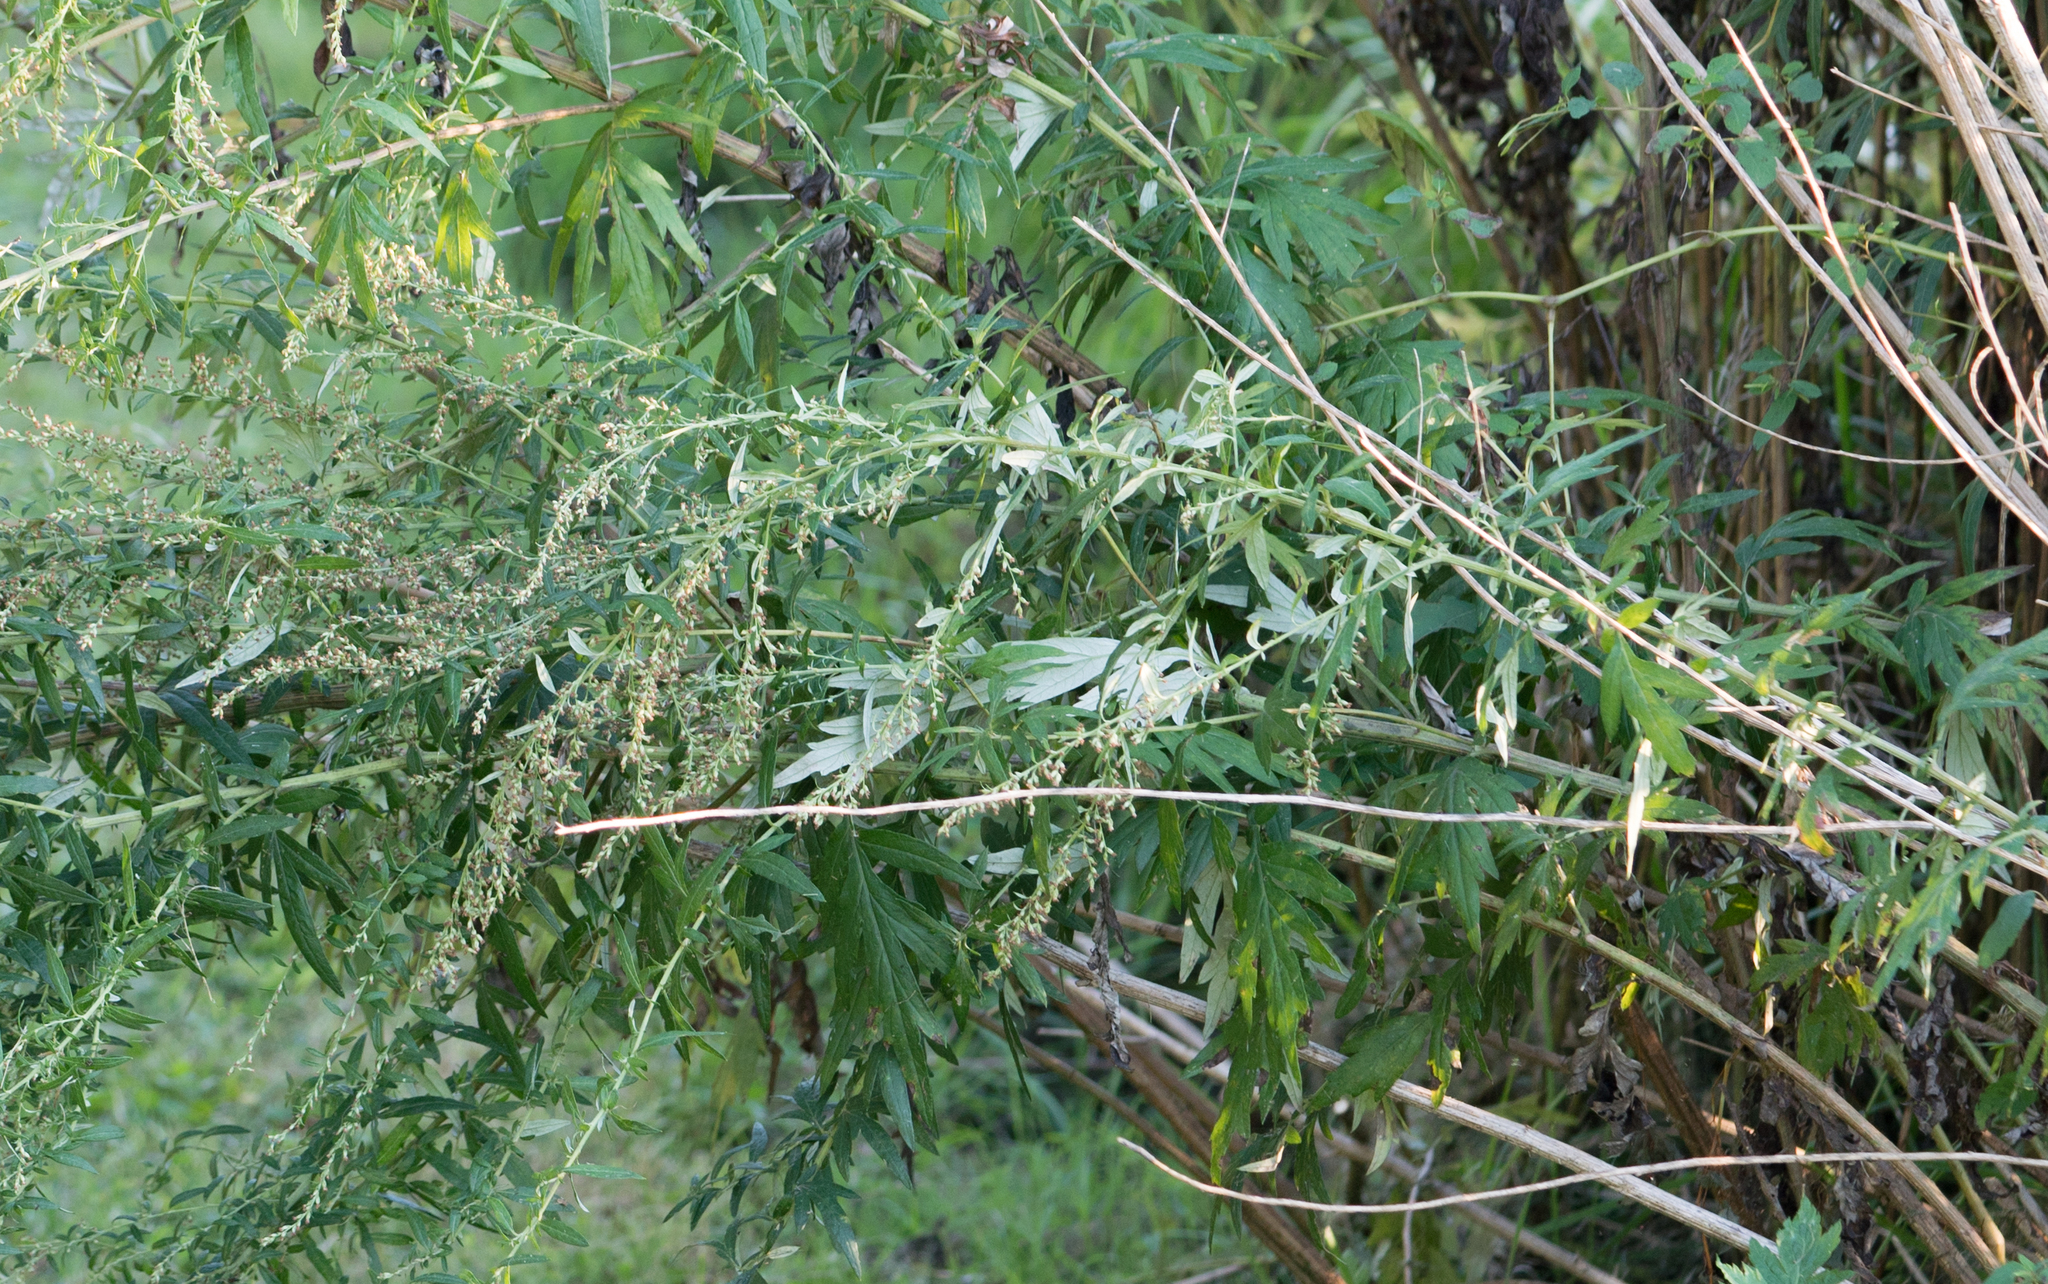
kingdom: Plantae
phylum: Tracheophyta
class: Magnoliopsida
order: Asterales
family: Asteraceae
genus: Artemisia
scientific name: Artemisia vulgaris
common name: Mugwort
